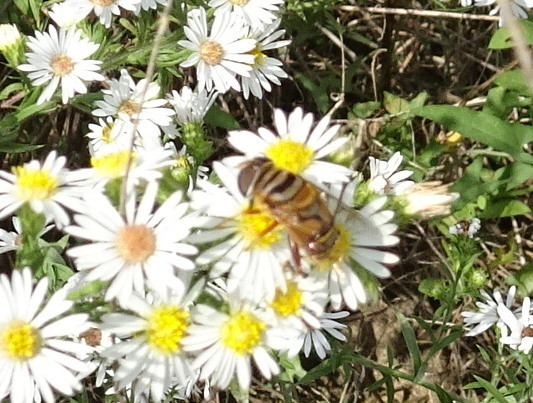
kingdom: Animalia
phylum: Arthropoda
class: Insecta
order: Diptera
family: Syrphidae
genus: Palpada
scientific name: Palpada vinetorum
